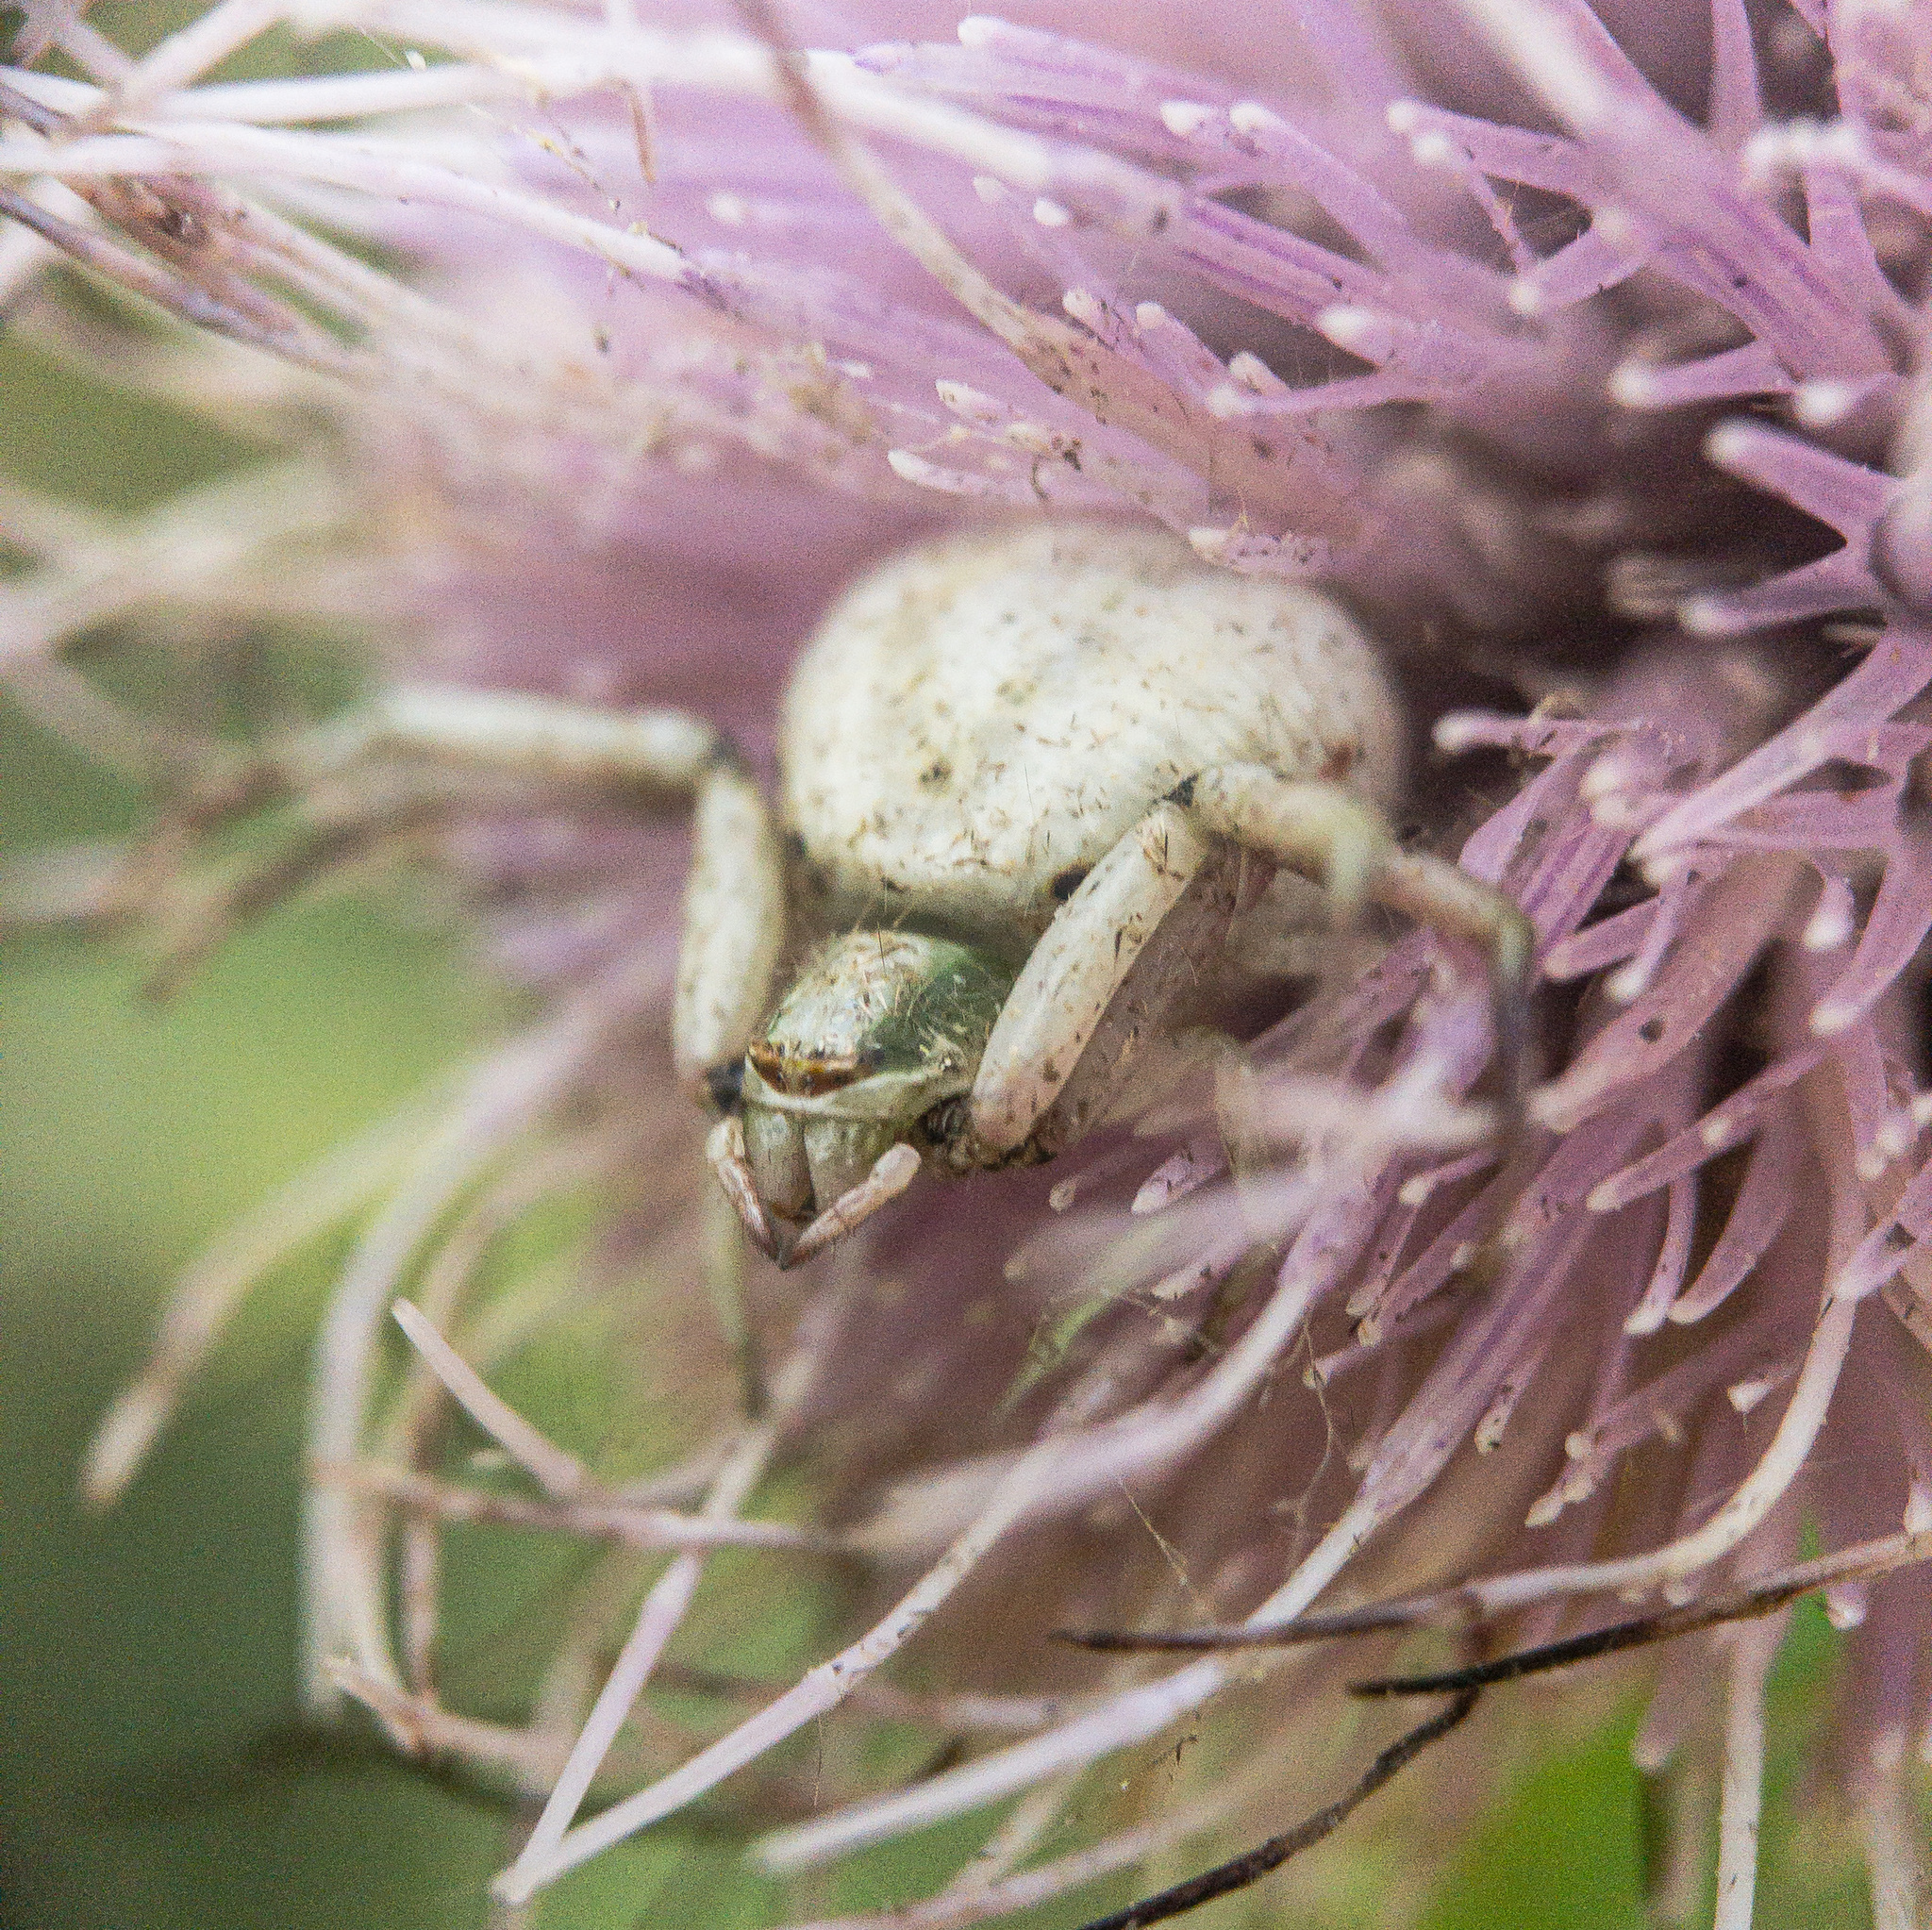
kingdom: Animalia
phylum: Arthropoda
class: Arachnida
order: Araneae
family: Thomisidae
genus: Misumenoides
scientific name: Misumenoides formosipes
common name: White-banded crab spider
